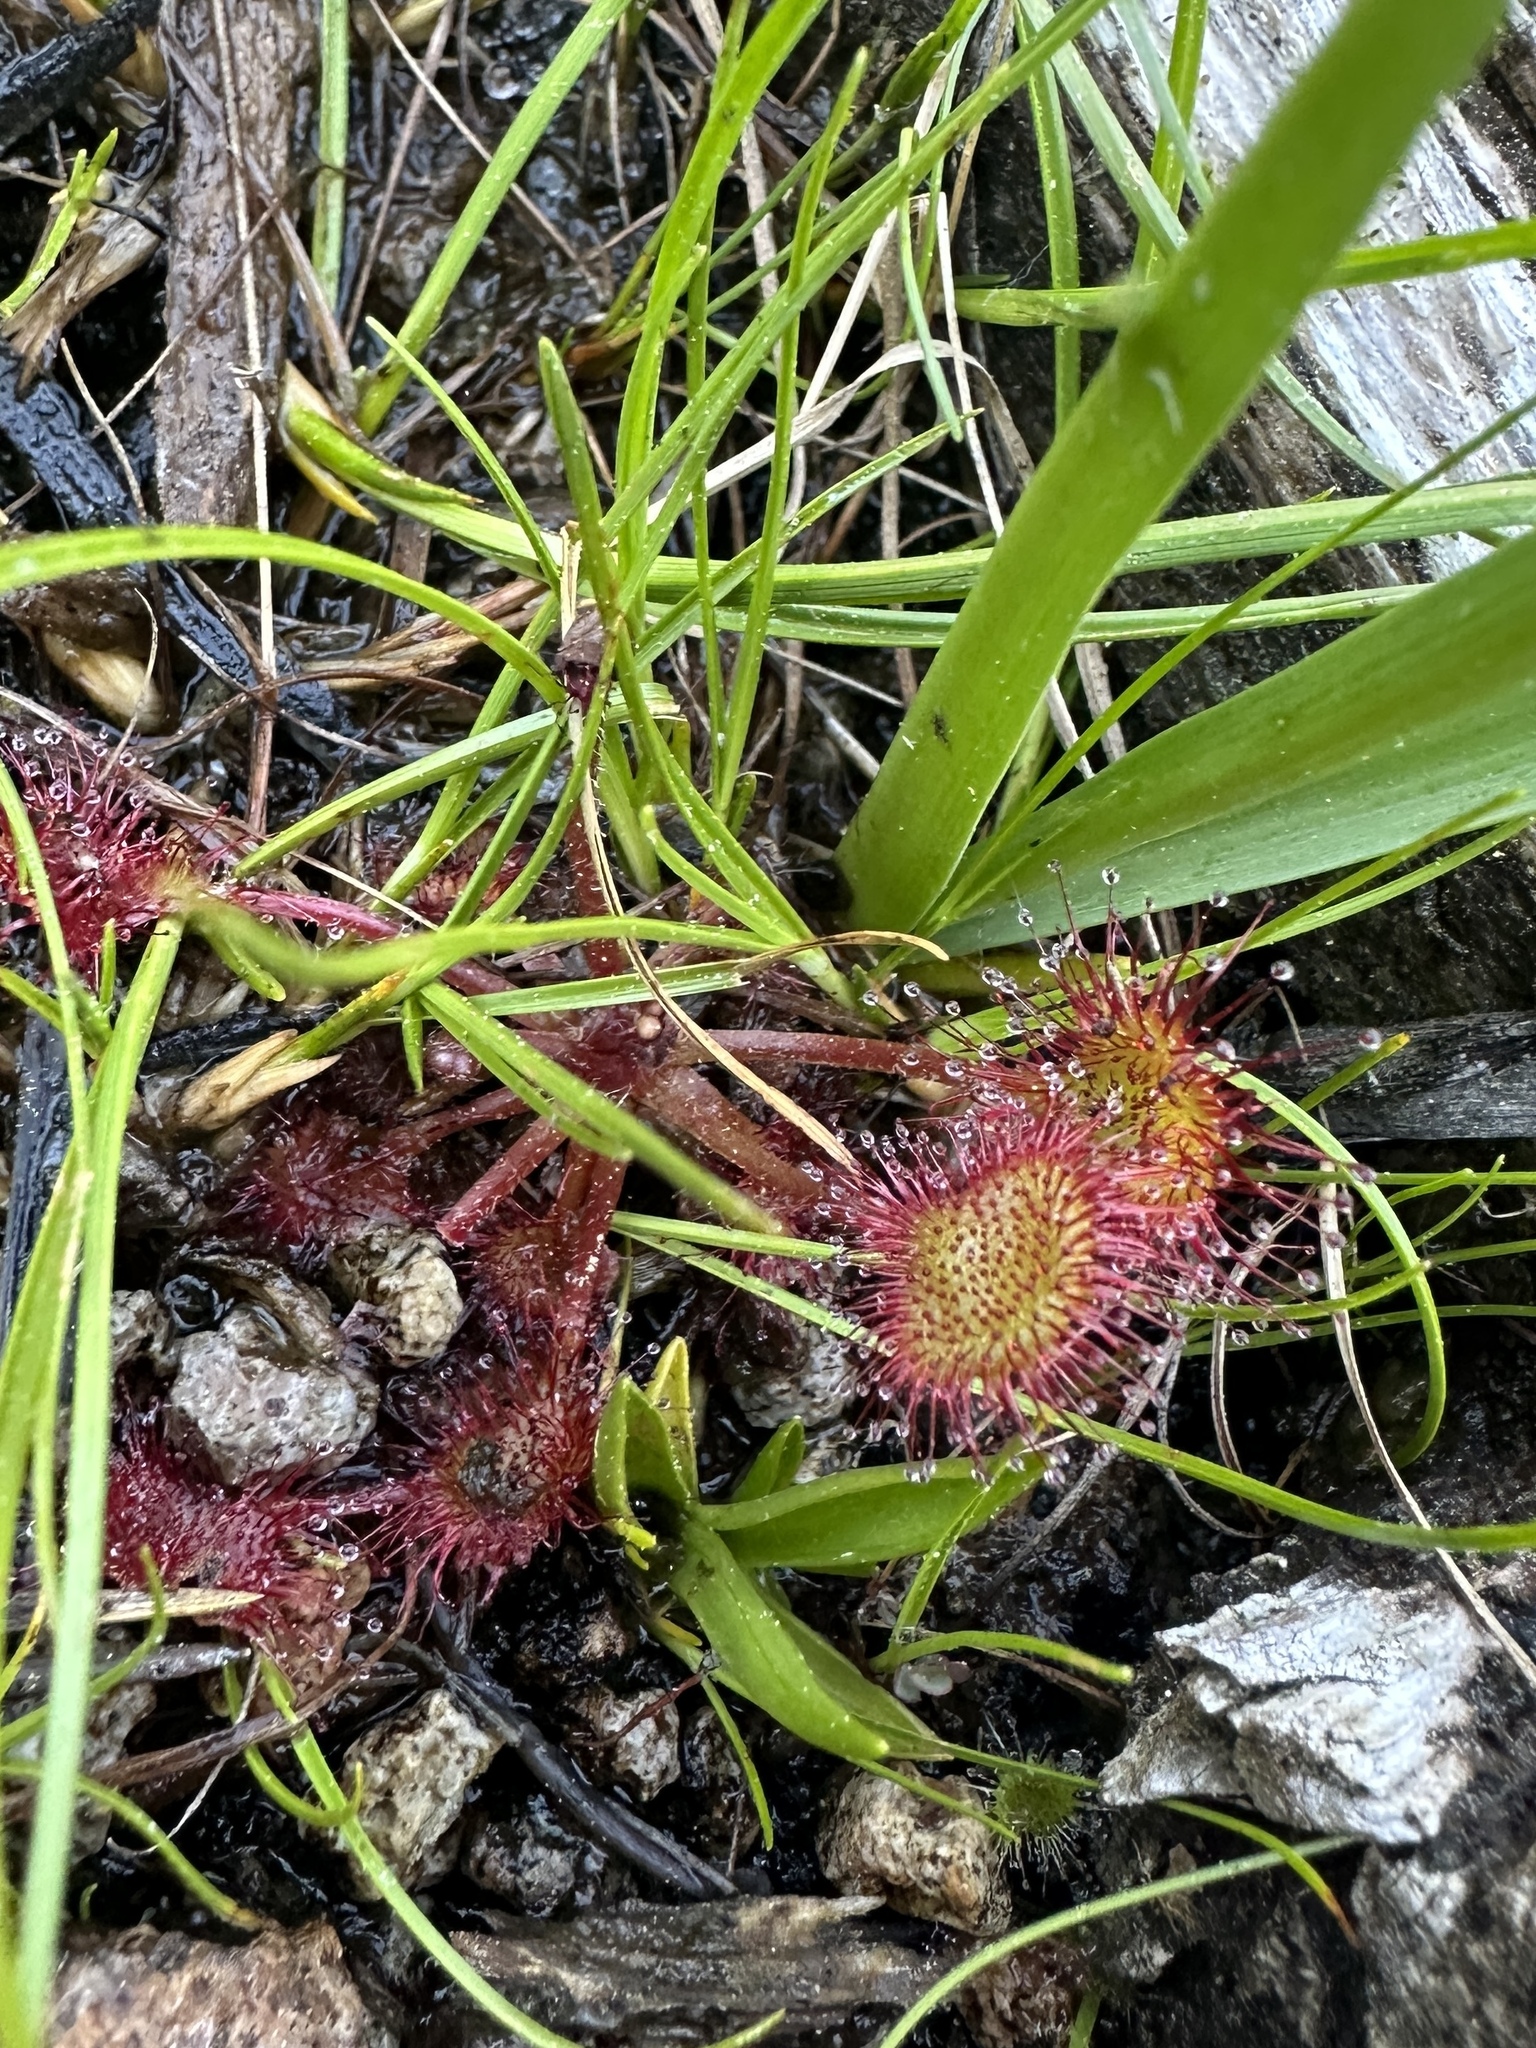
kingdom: Plantae
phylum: Tracheophyta
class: Magnoliopsida
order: Caryophyllales
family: Droseraceae
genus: Drosera
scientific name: Drosera rotundifolia
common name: Round-leaved sundew
